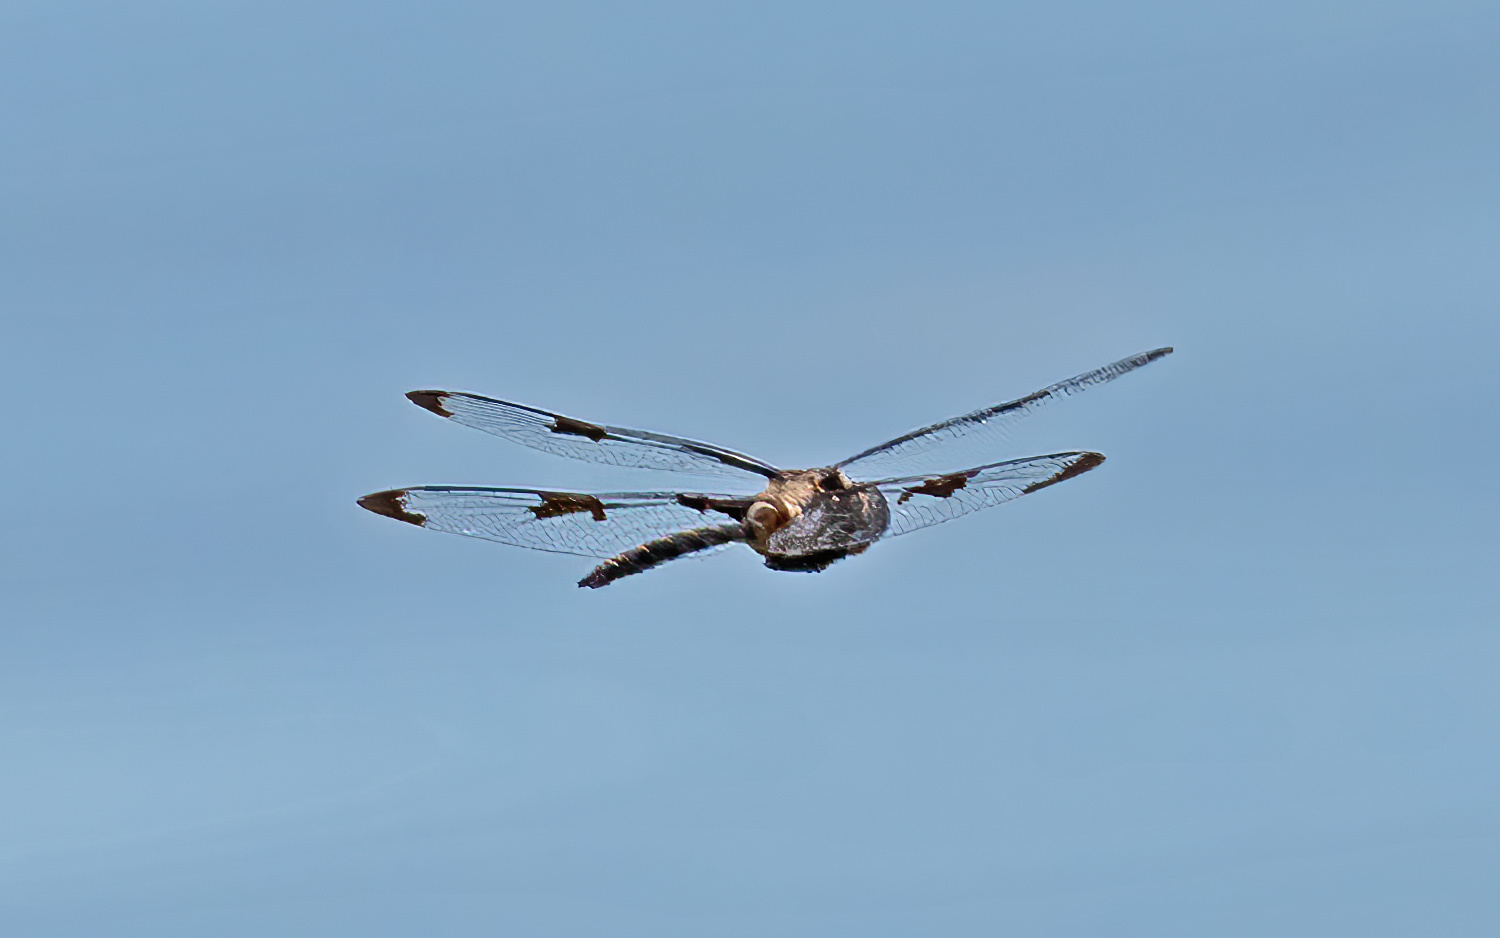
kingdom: Animalia
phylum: Arthropoda
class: Insecta
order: Odonata
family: Corduliidae
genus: Epitheca
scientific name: Epitheca princeps
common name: Prince baskettail
